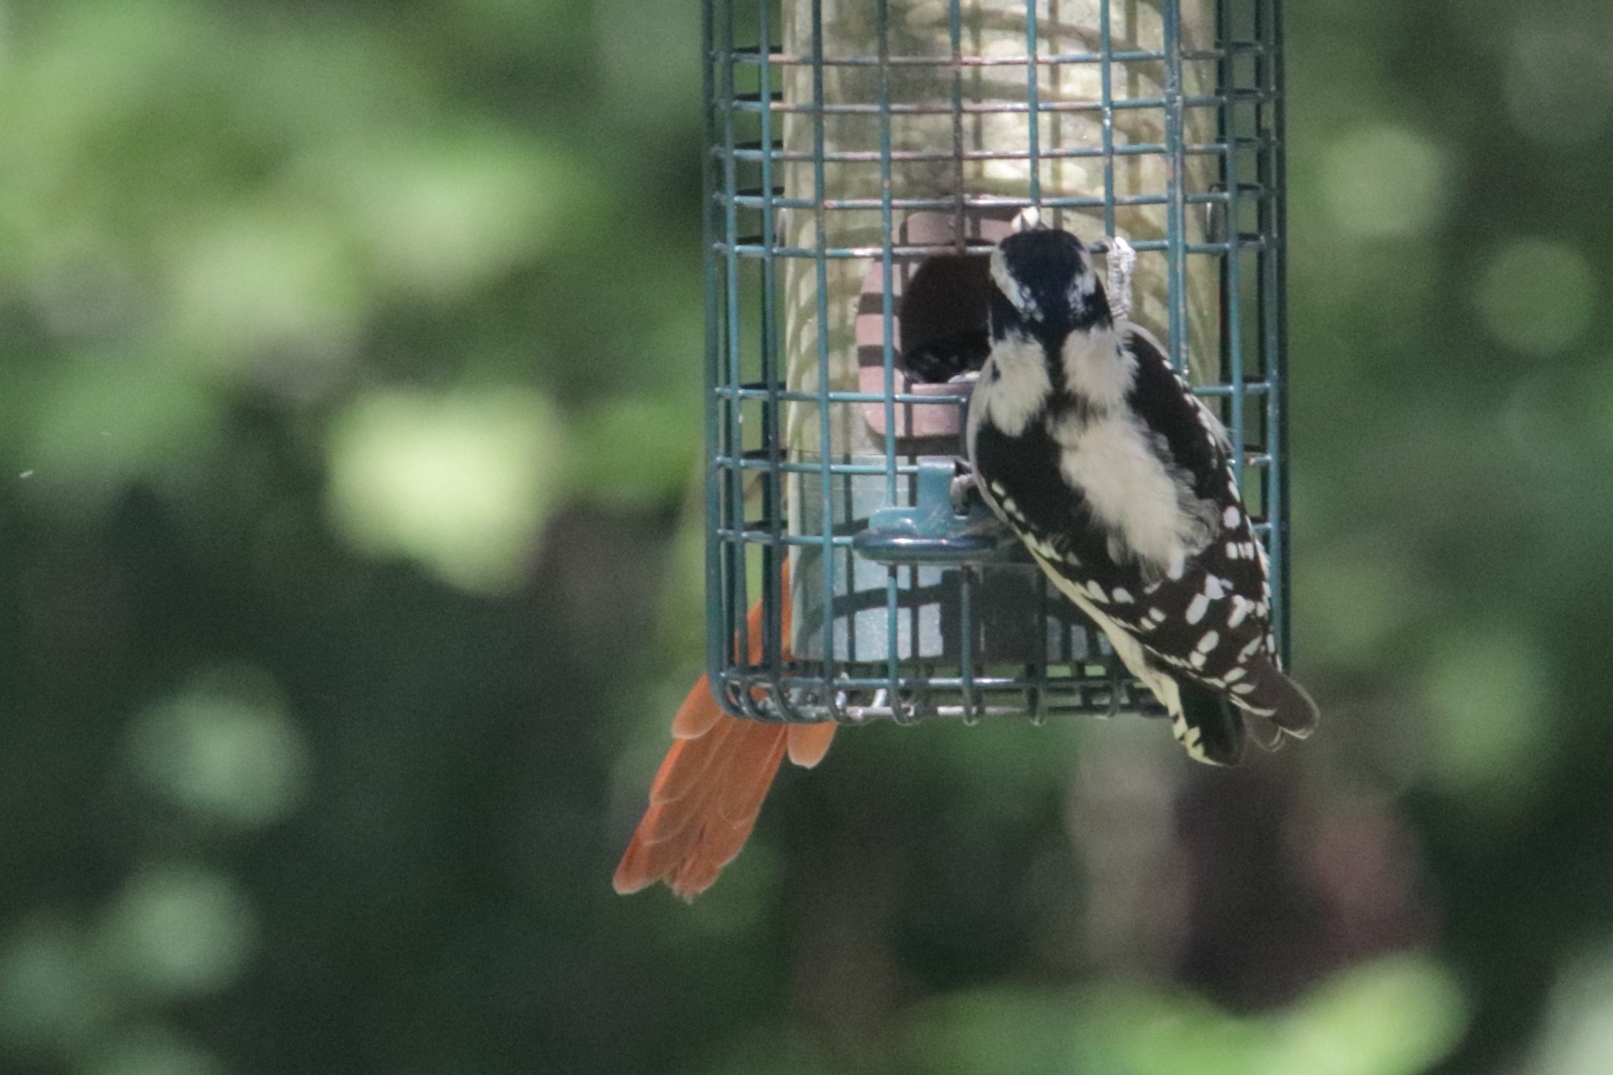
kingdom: Animalia
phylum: Chordata
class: Aves
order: Piciformes
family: Picidae
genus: Dryobates
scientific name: Dryobates pubescens
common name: Downy woodpecker
